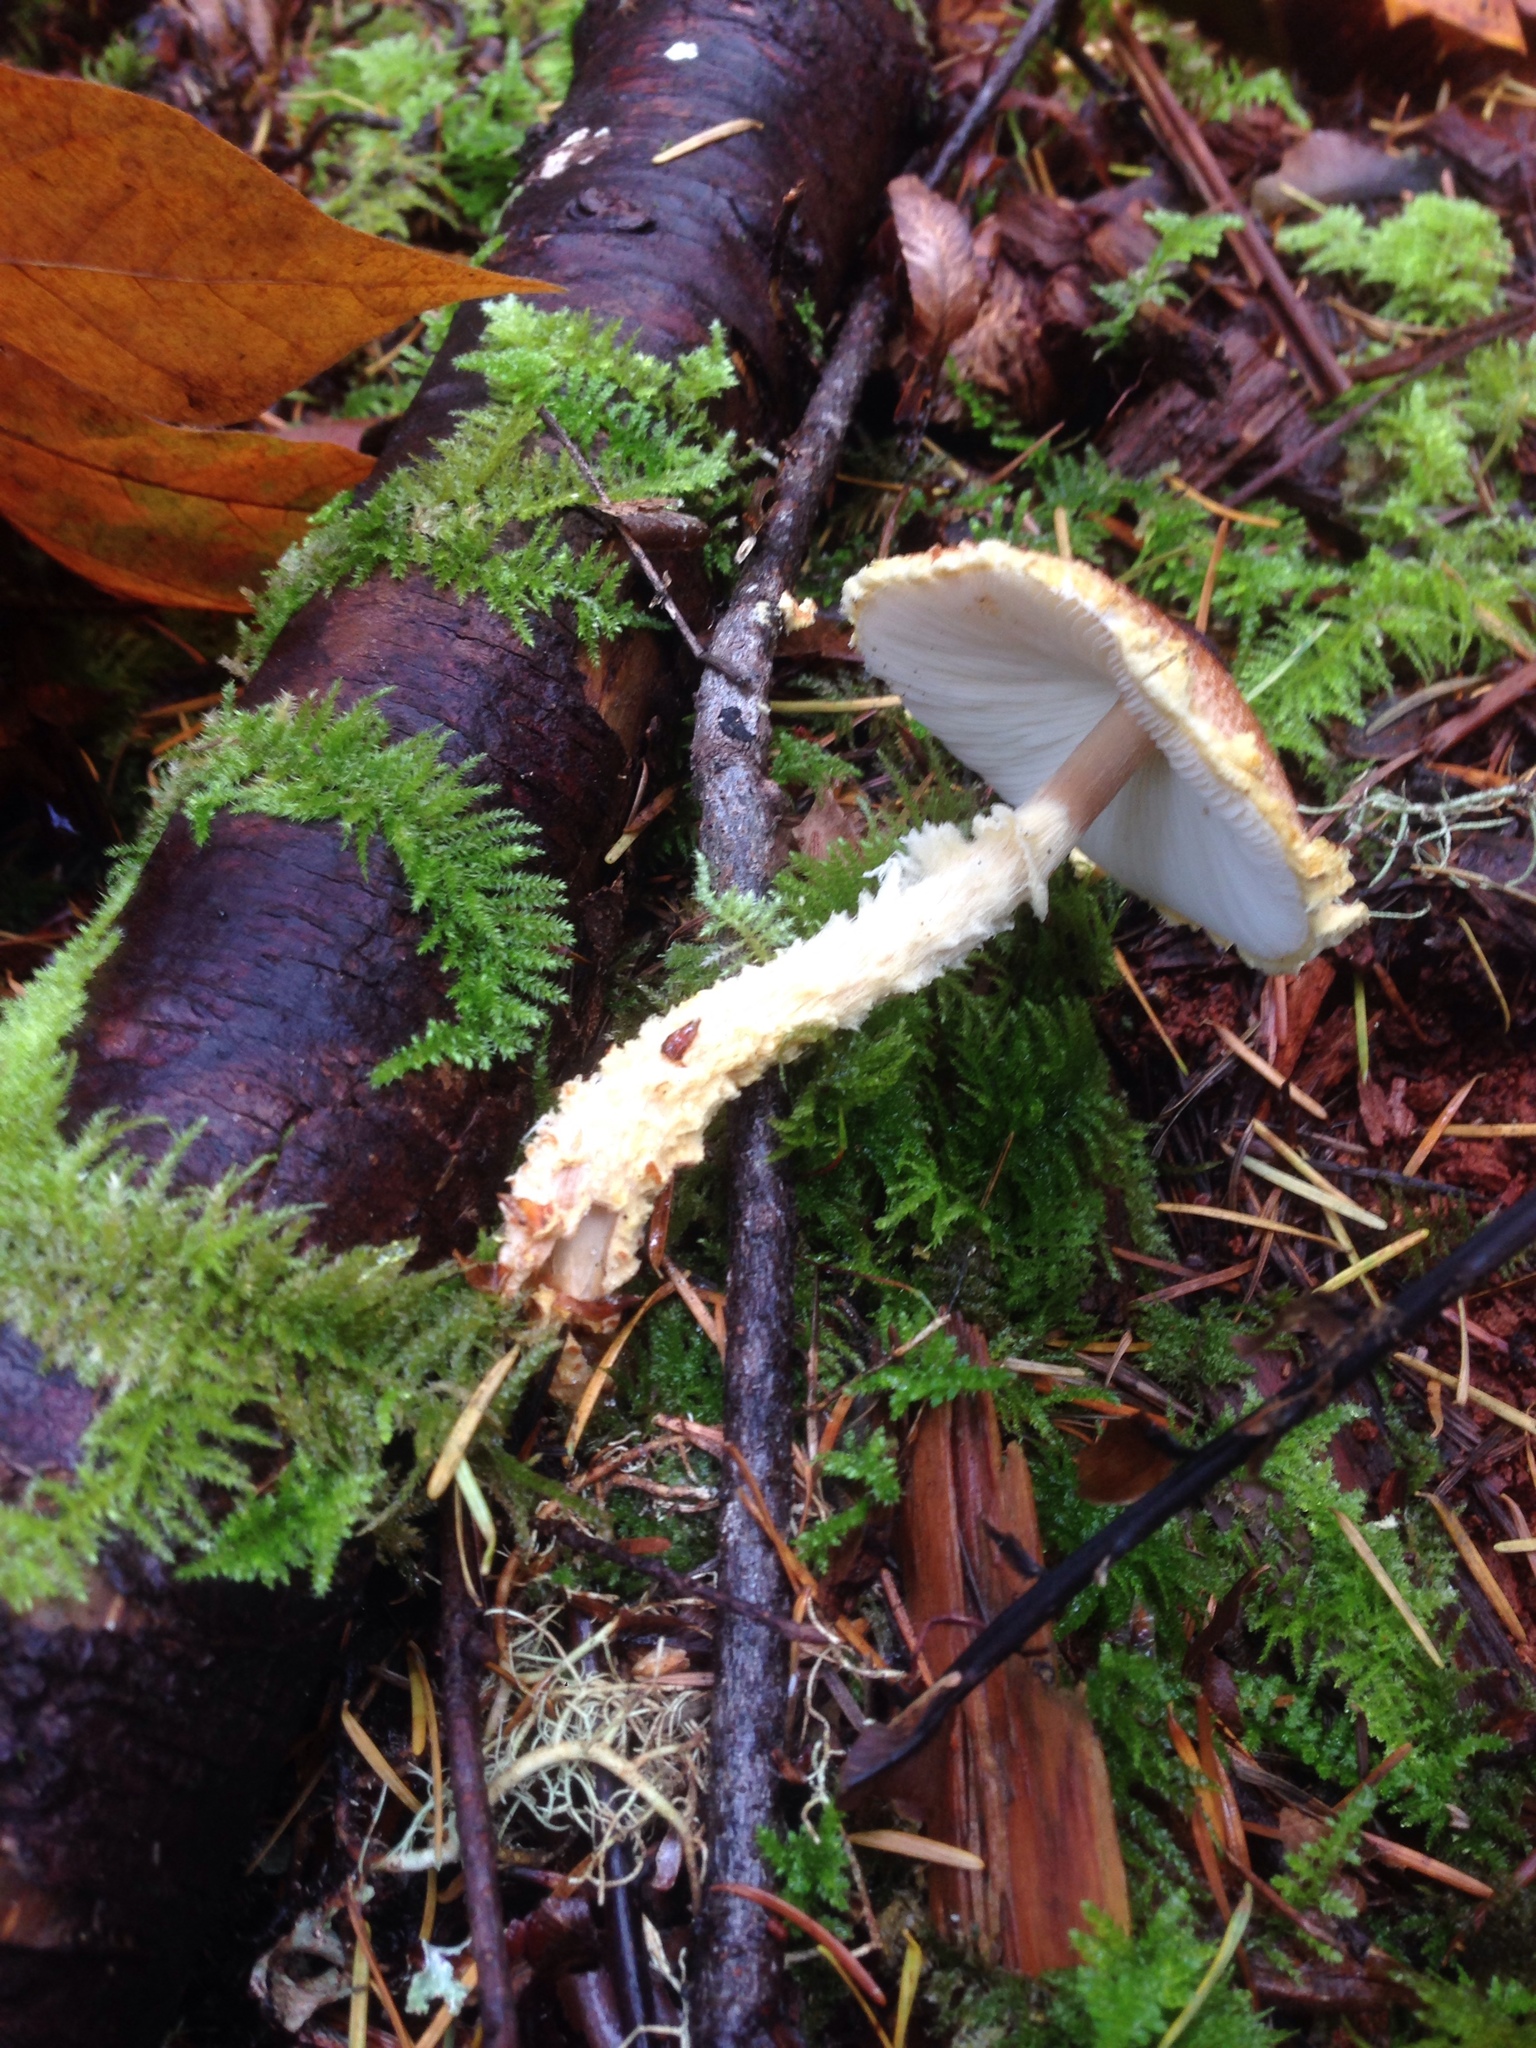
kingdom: Fungi
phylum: Basidiomycota
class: Agaricomycetes
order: Agaricales
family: Agaricaceae
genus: Lepiota
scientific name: Lepiota magnispora
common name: Yellowfoot dapperling
